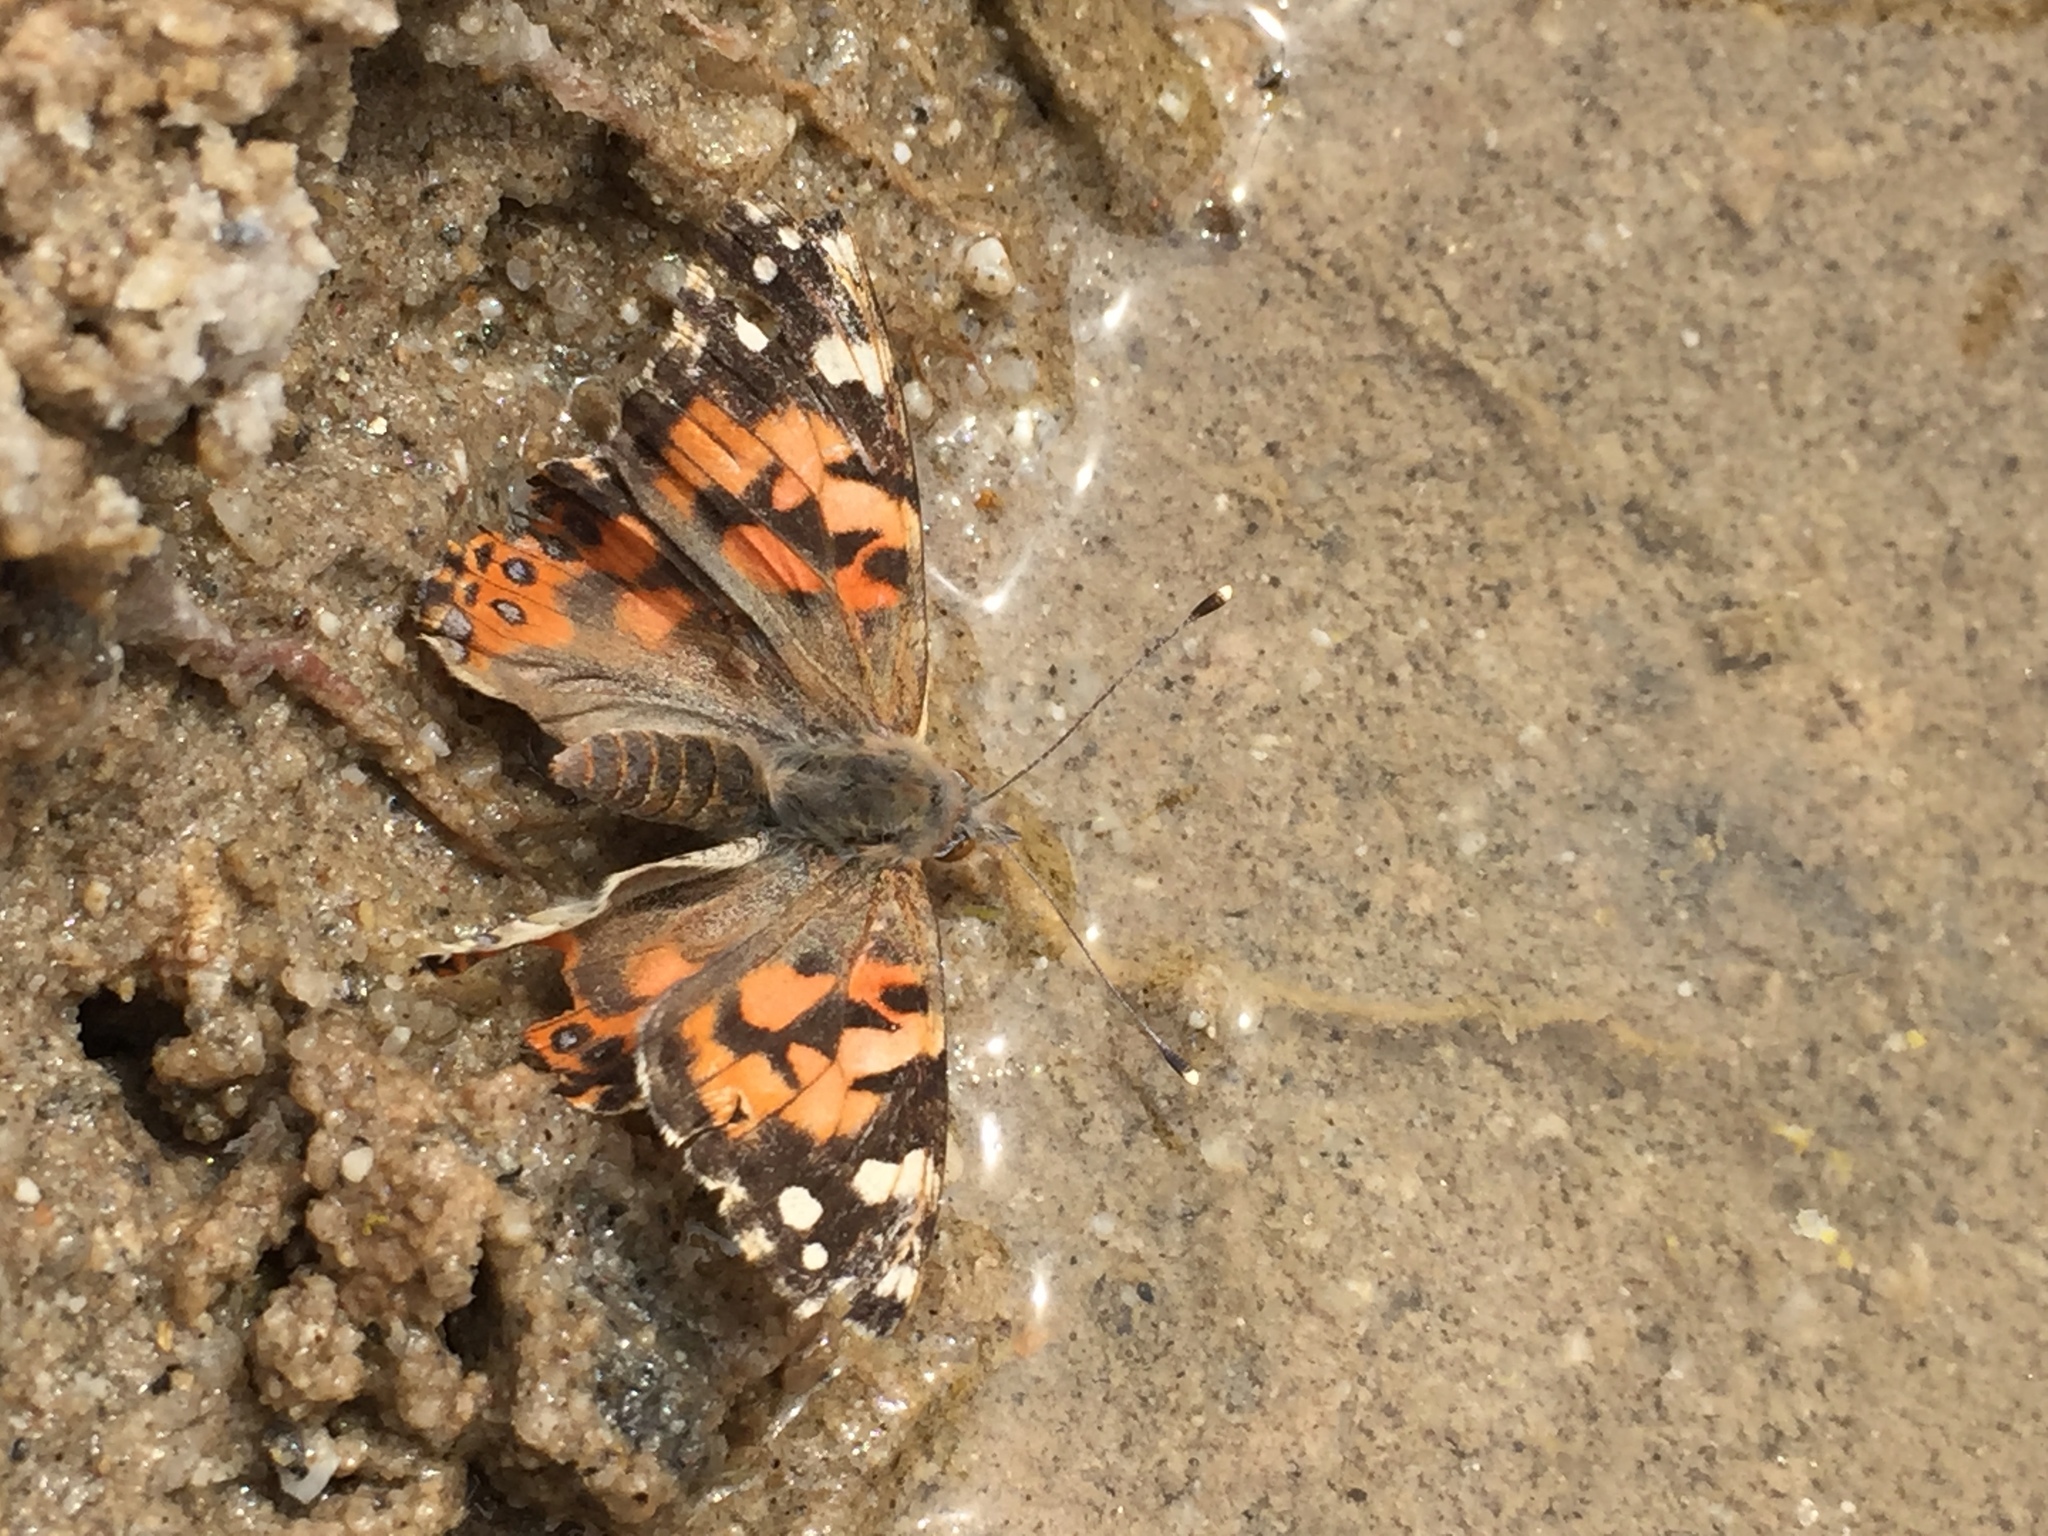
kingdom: Animalia
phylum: Arthropoda
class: Insecta
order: Lepidoptera
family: Nymphalidae
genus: Vanessa
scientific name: Vanessa cardui
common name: Painted lady
